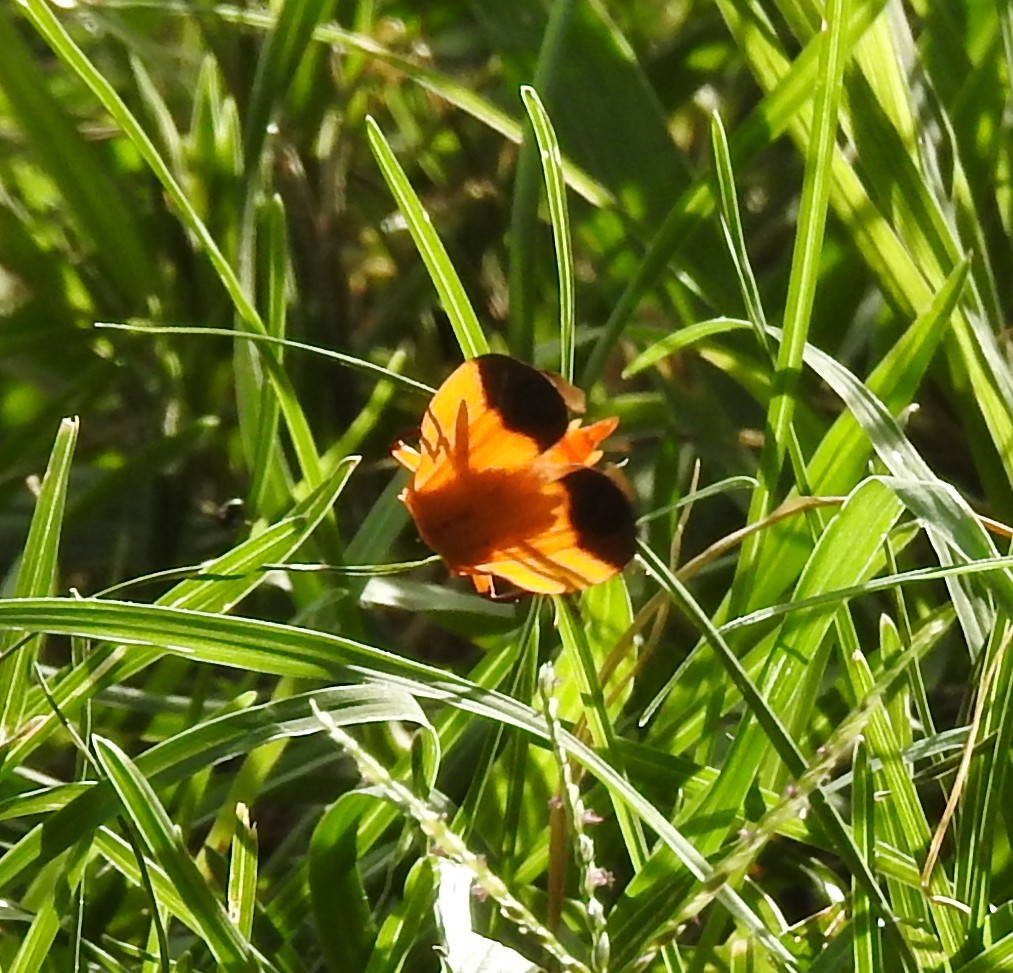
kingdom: Animalia
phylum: Arthropoda
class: Insecta
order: Coleoptera
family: Lycidae
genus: Lycus
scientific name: Lycus arizonensis
